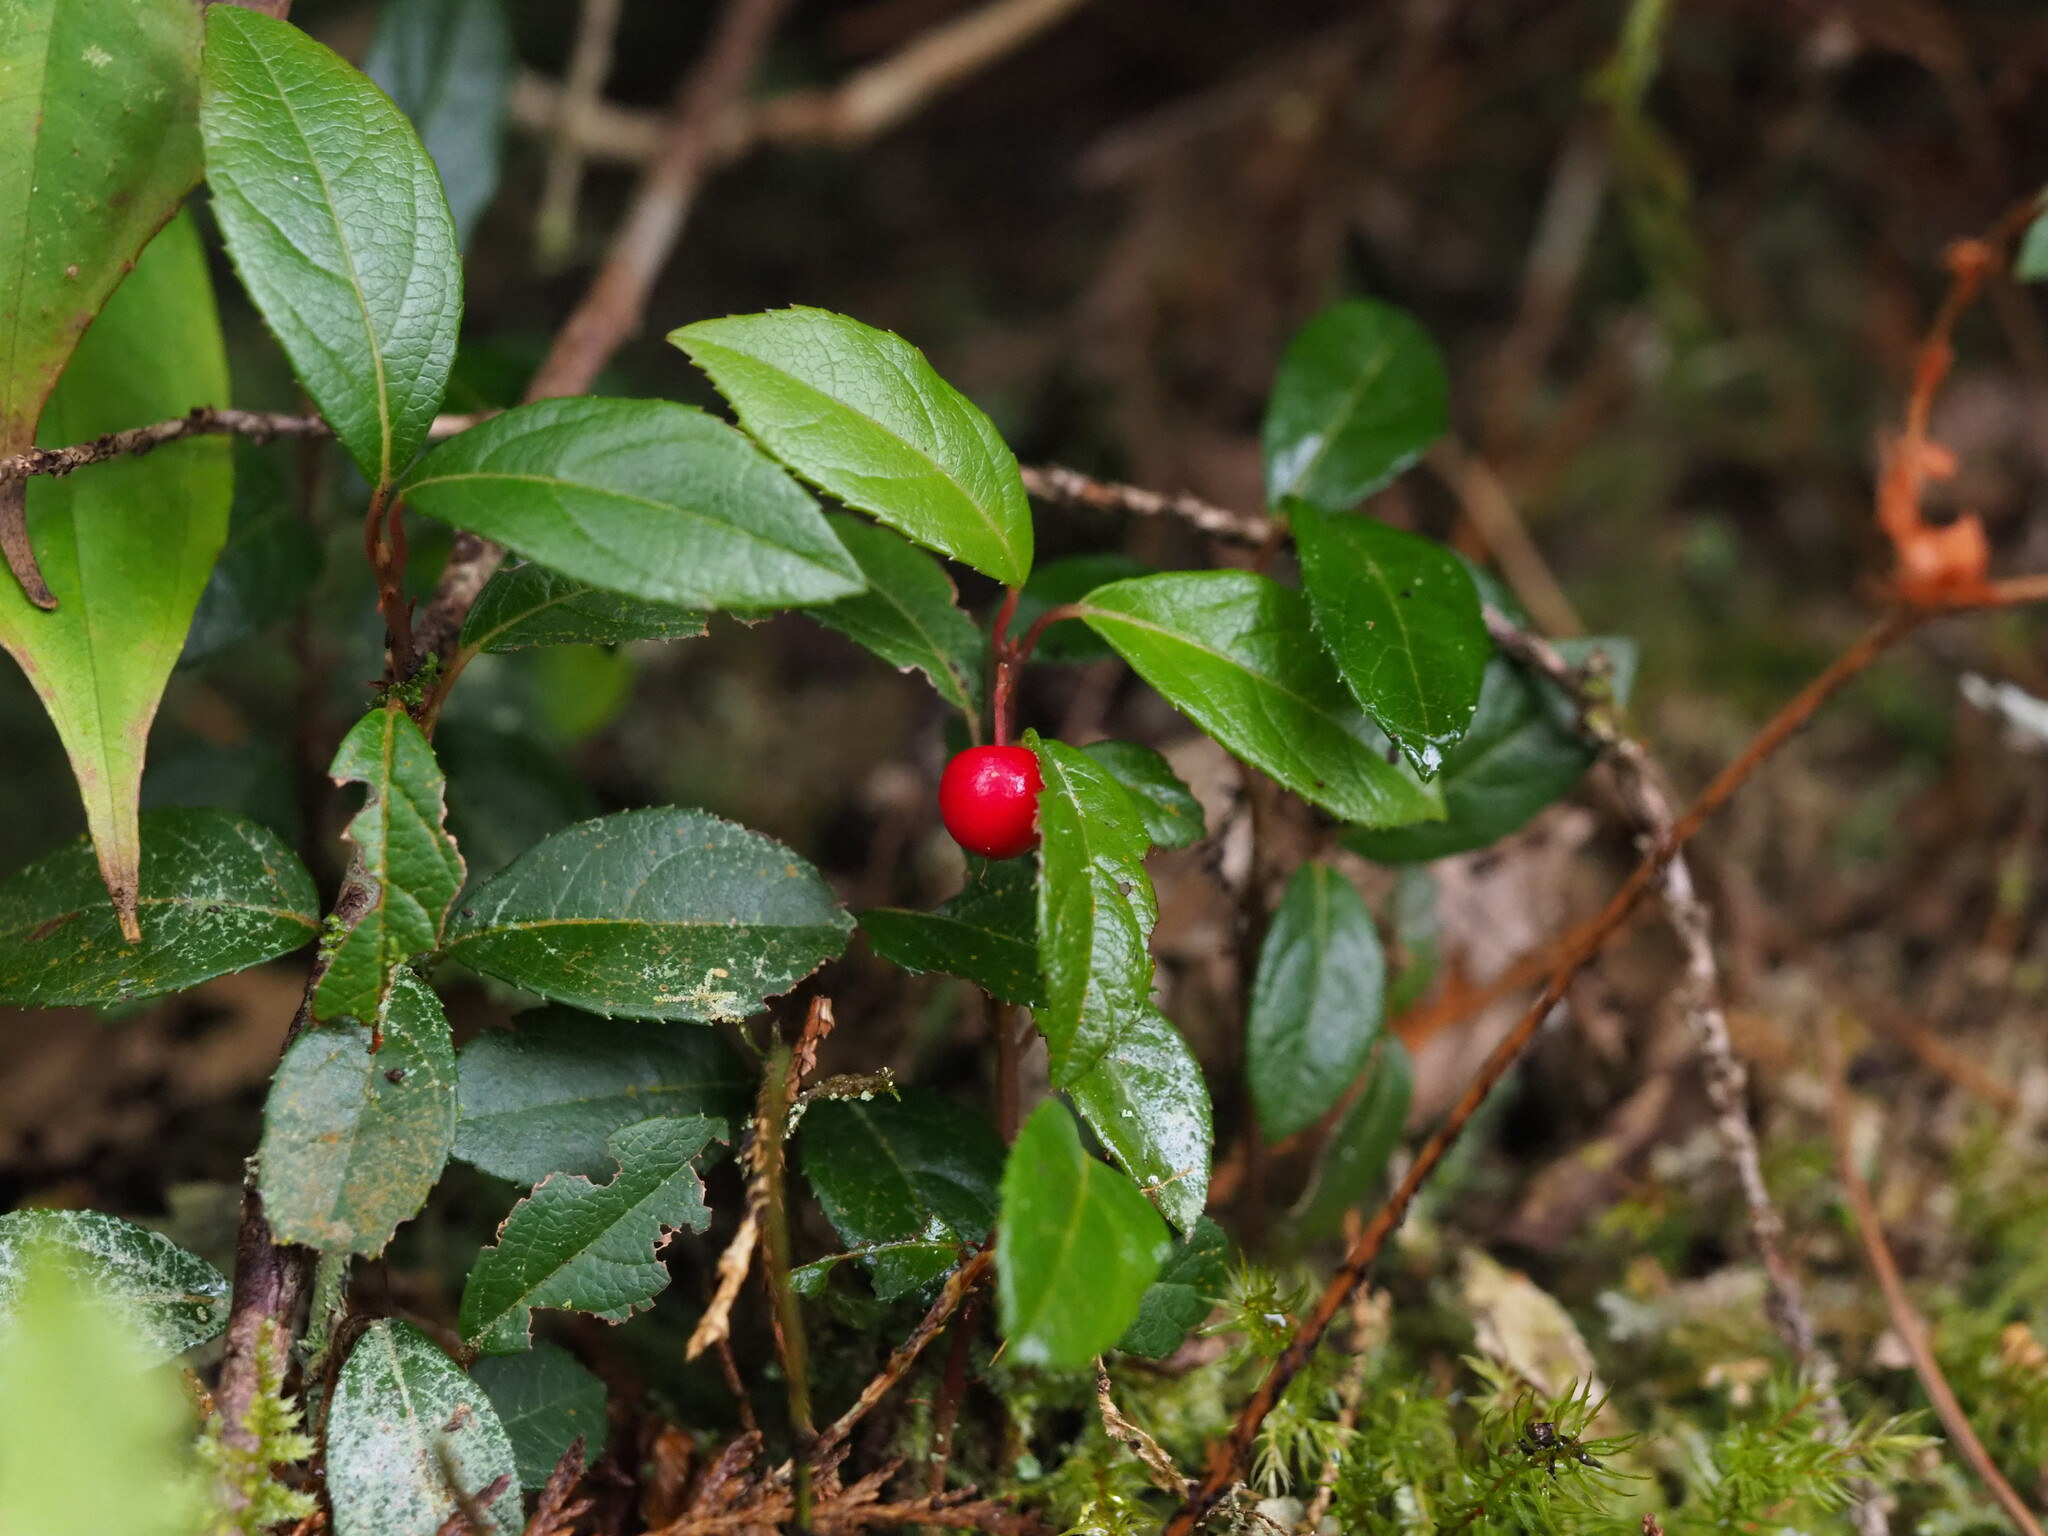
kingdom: Plantae
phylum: Tracheophyta
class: Magnoliopsida
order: Ericales
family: Primulaceae
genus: Ardisia
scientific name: Ardisia japonica
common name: Marlberry
